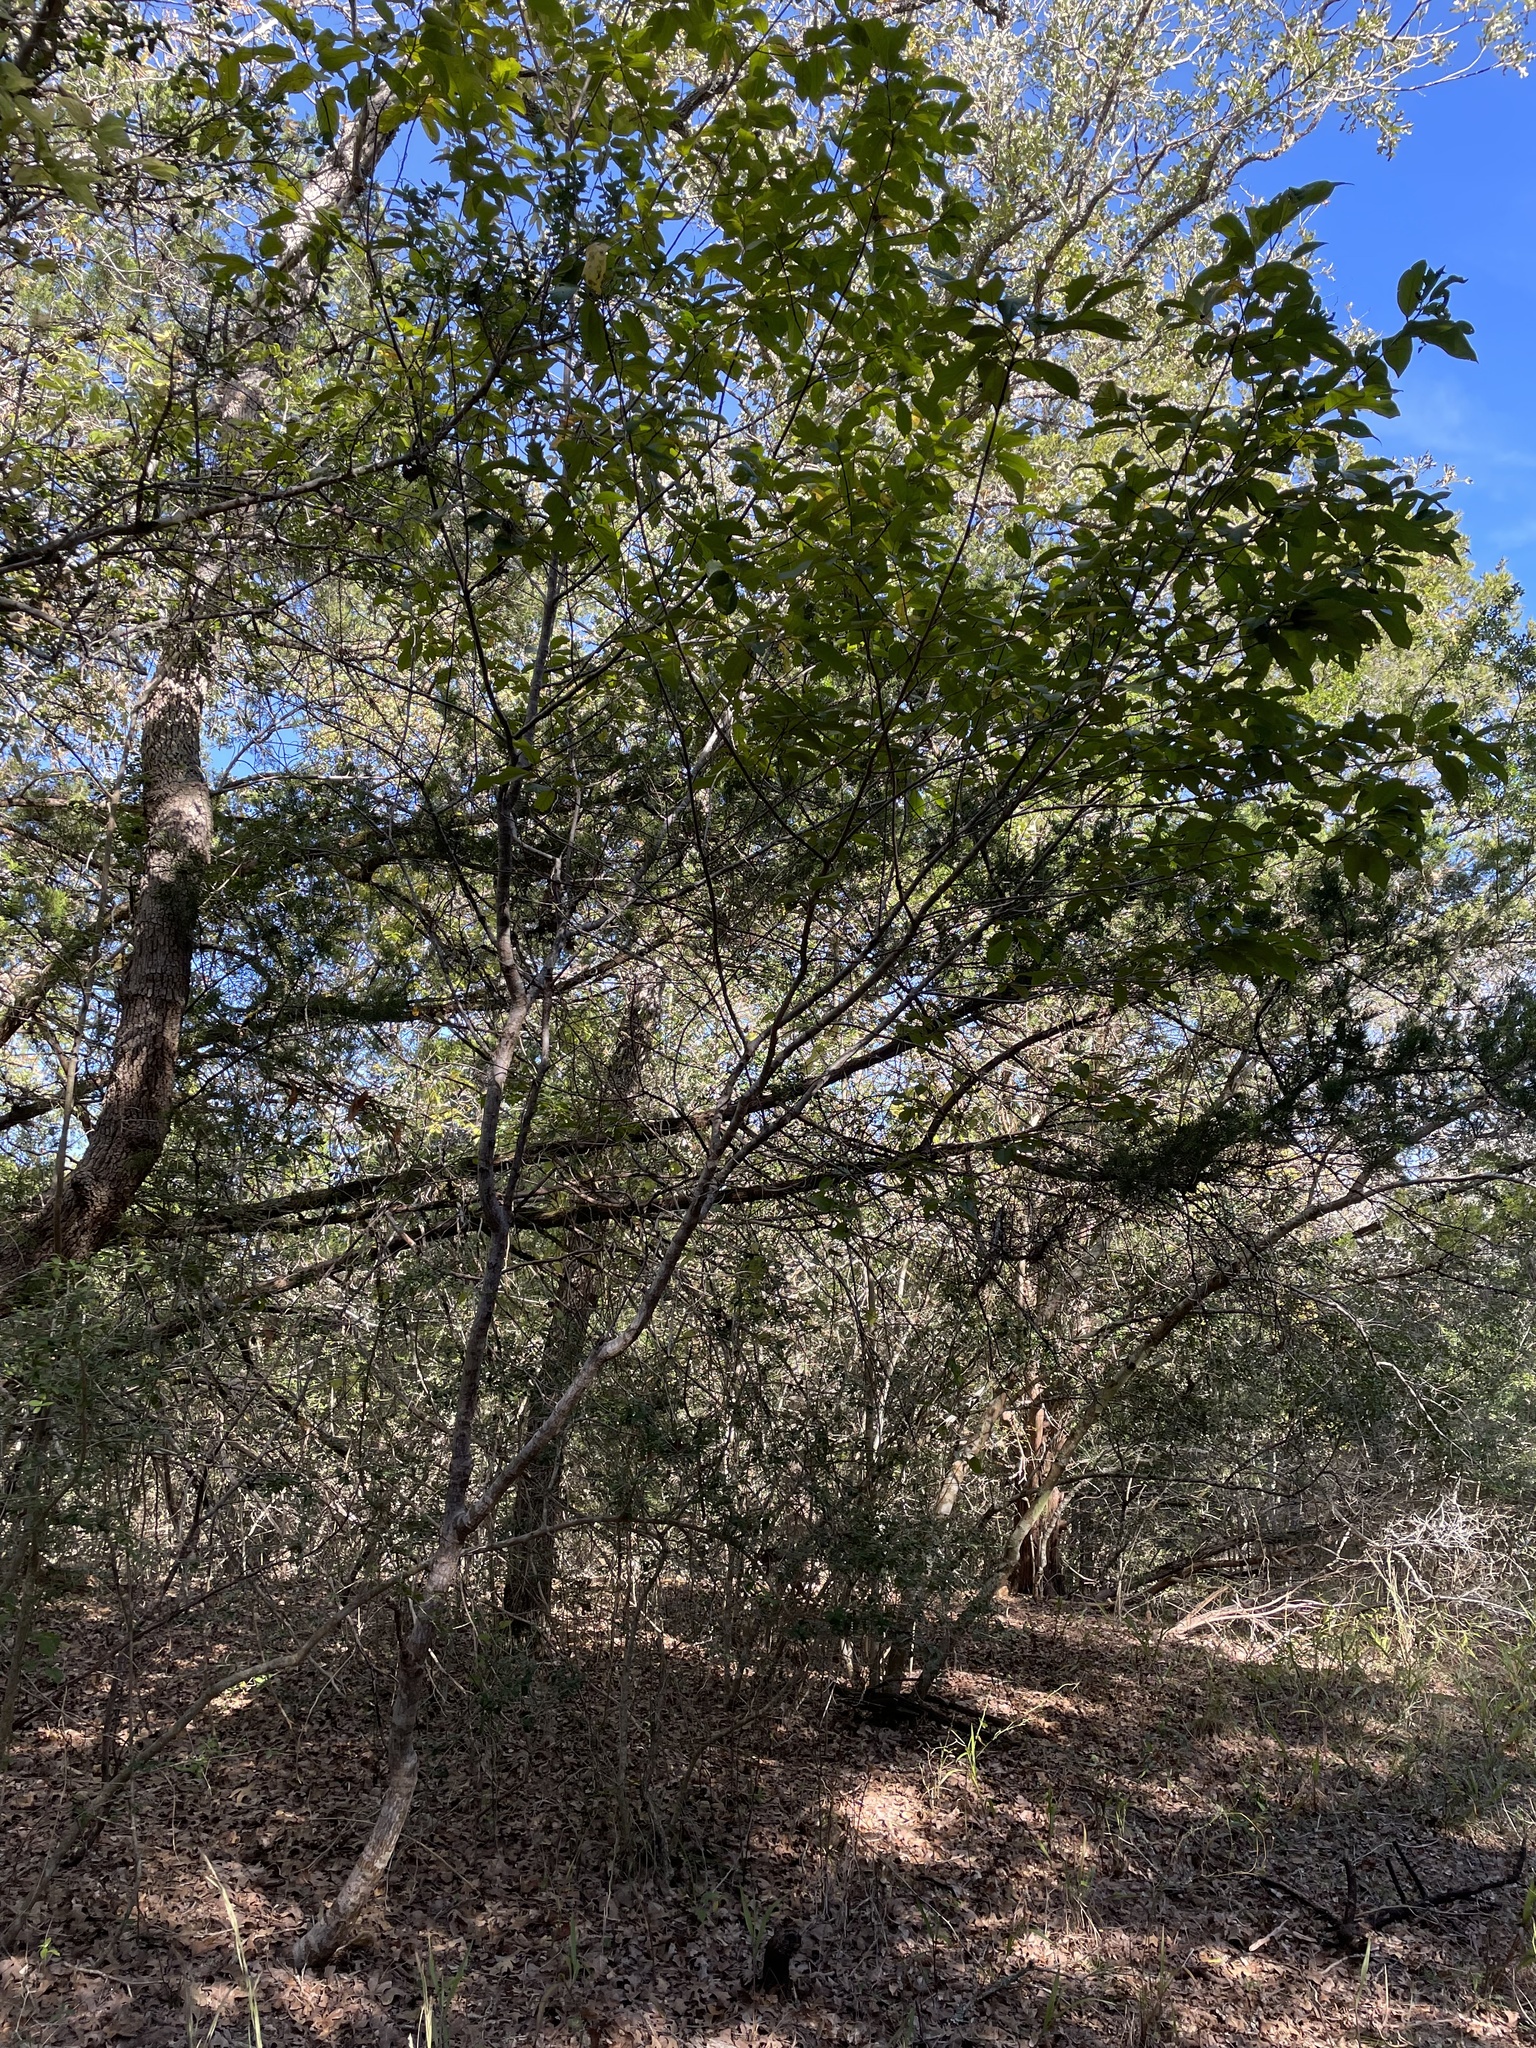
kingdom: Plantae
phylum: Tracheophyta
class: Magnoliopsida
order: Rosales
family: Rhamnaceae
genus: Frangula
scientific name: Frangula caroliniana
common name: Carolina buckthorn
